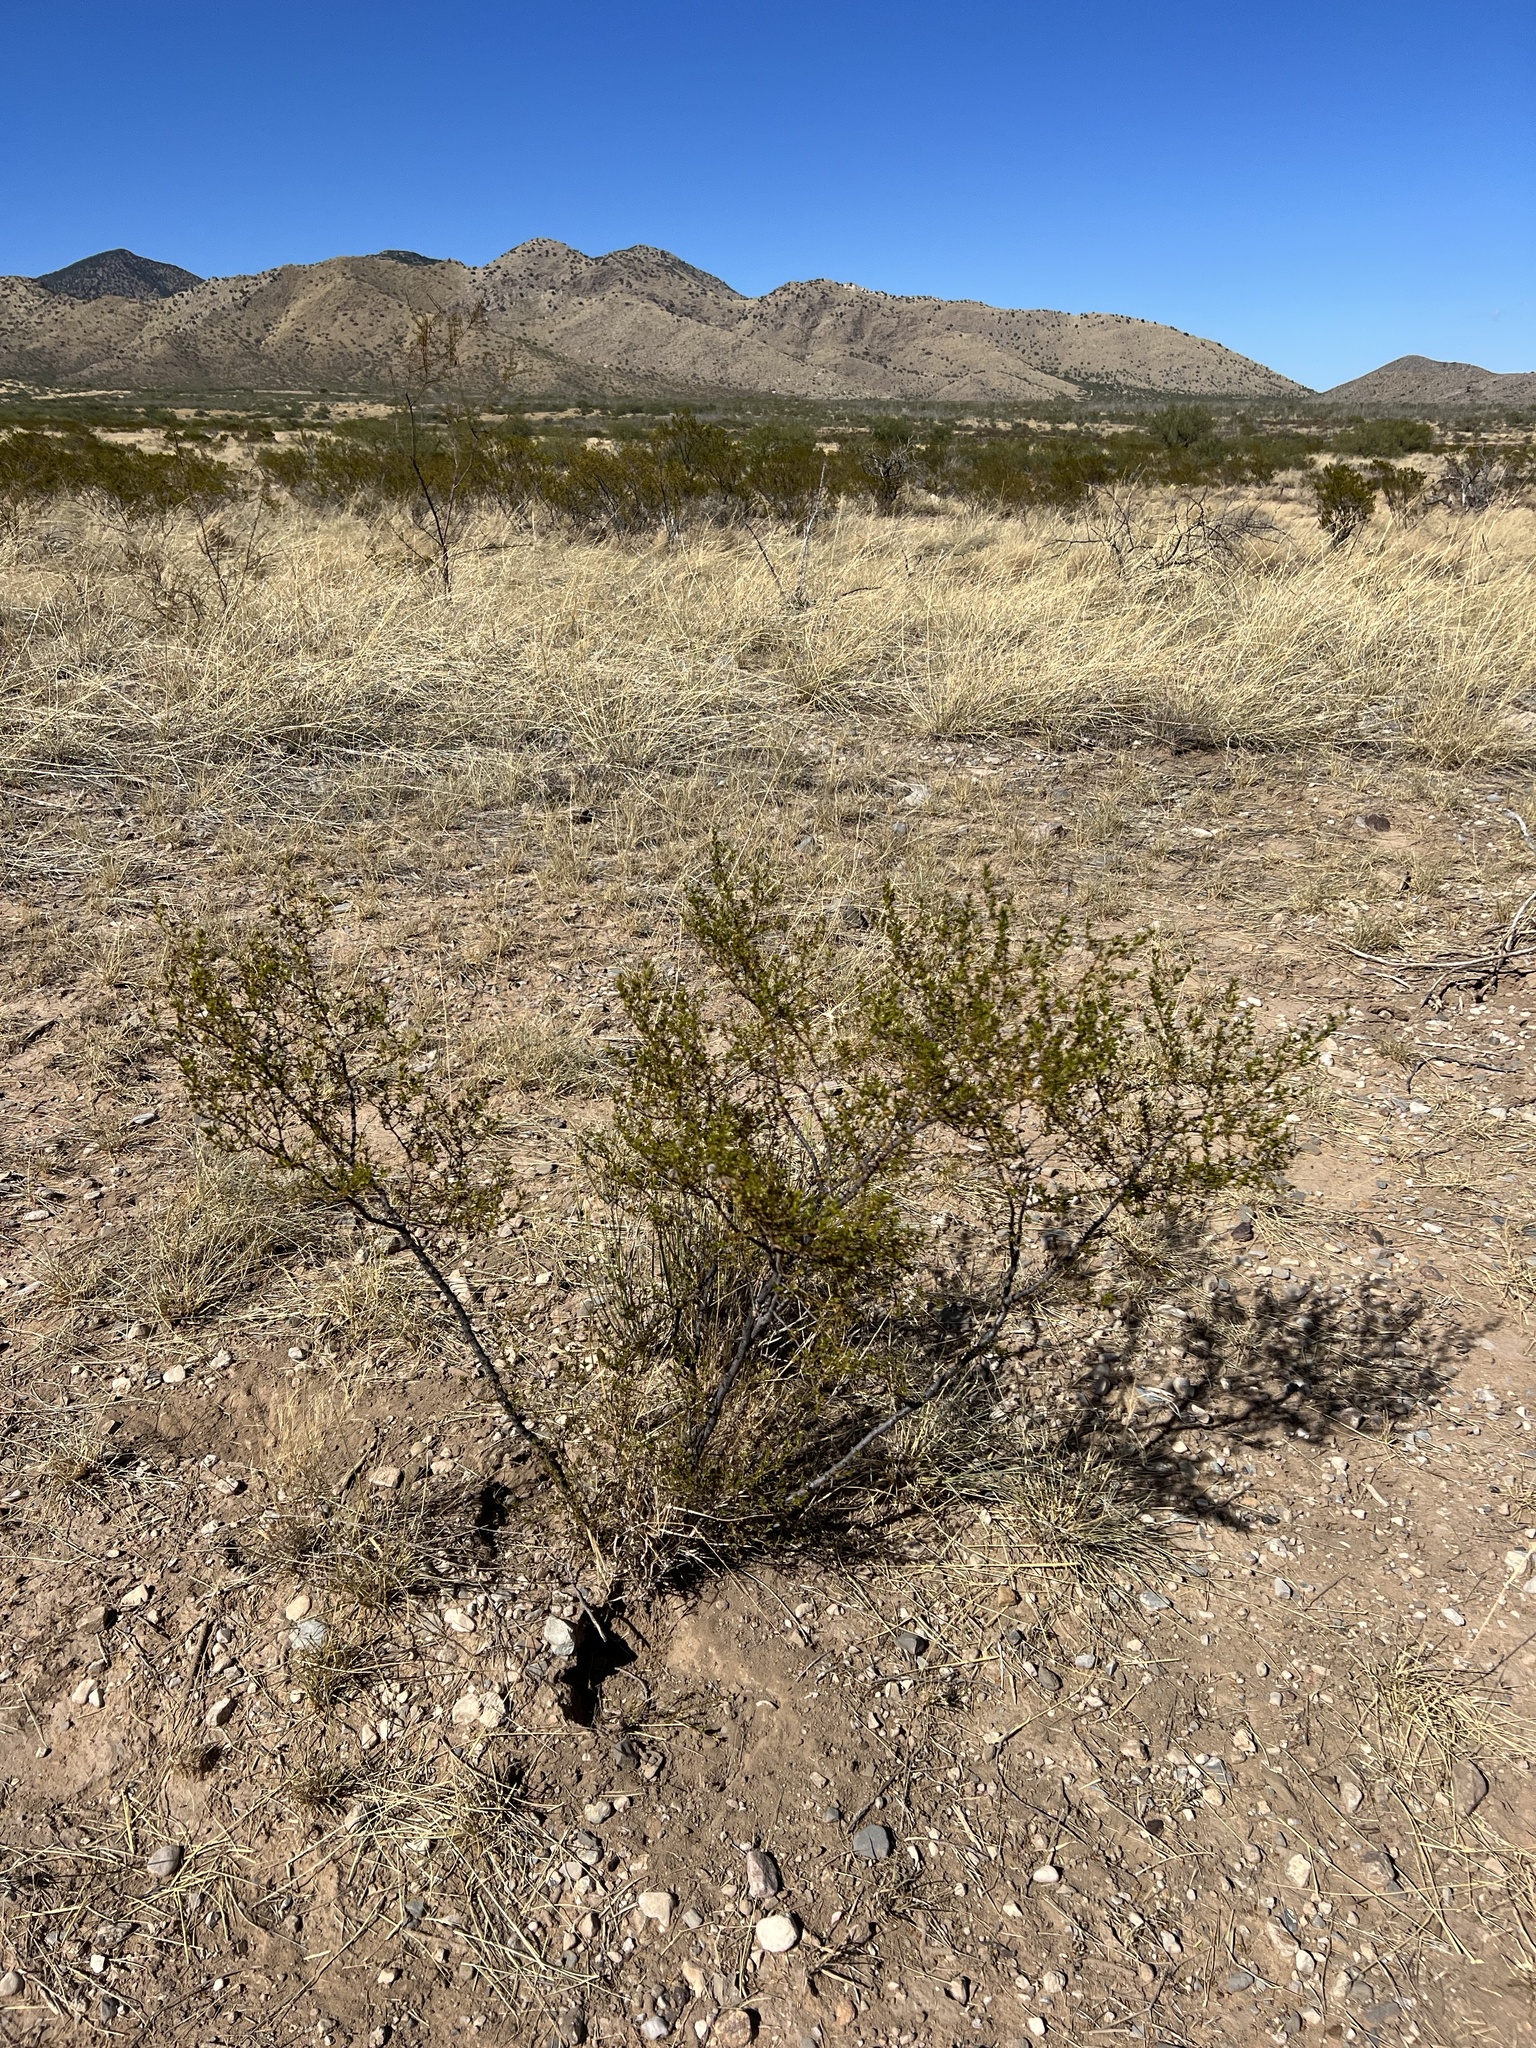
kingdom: Plantae
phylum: Tracheophyta
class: Magnoliopsida
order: Zygophyllales
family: Zygophyllaceae
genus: Larrea
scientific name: Larrea tridentata
